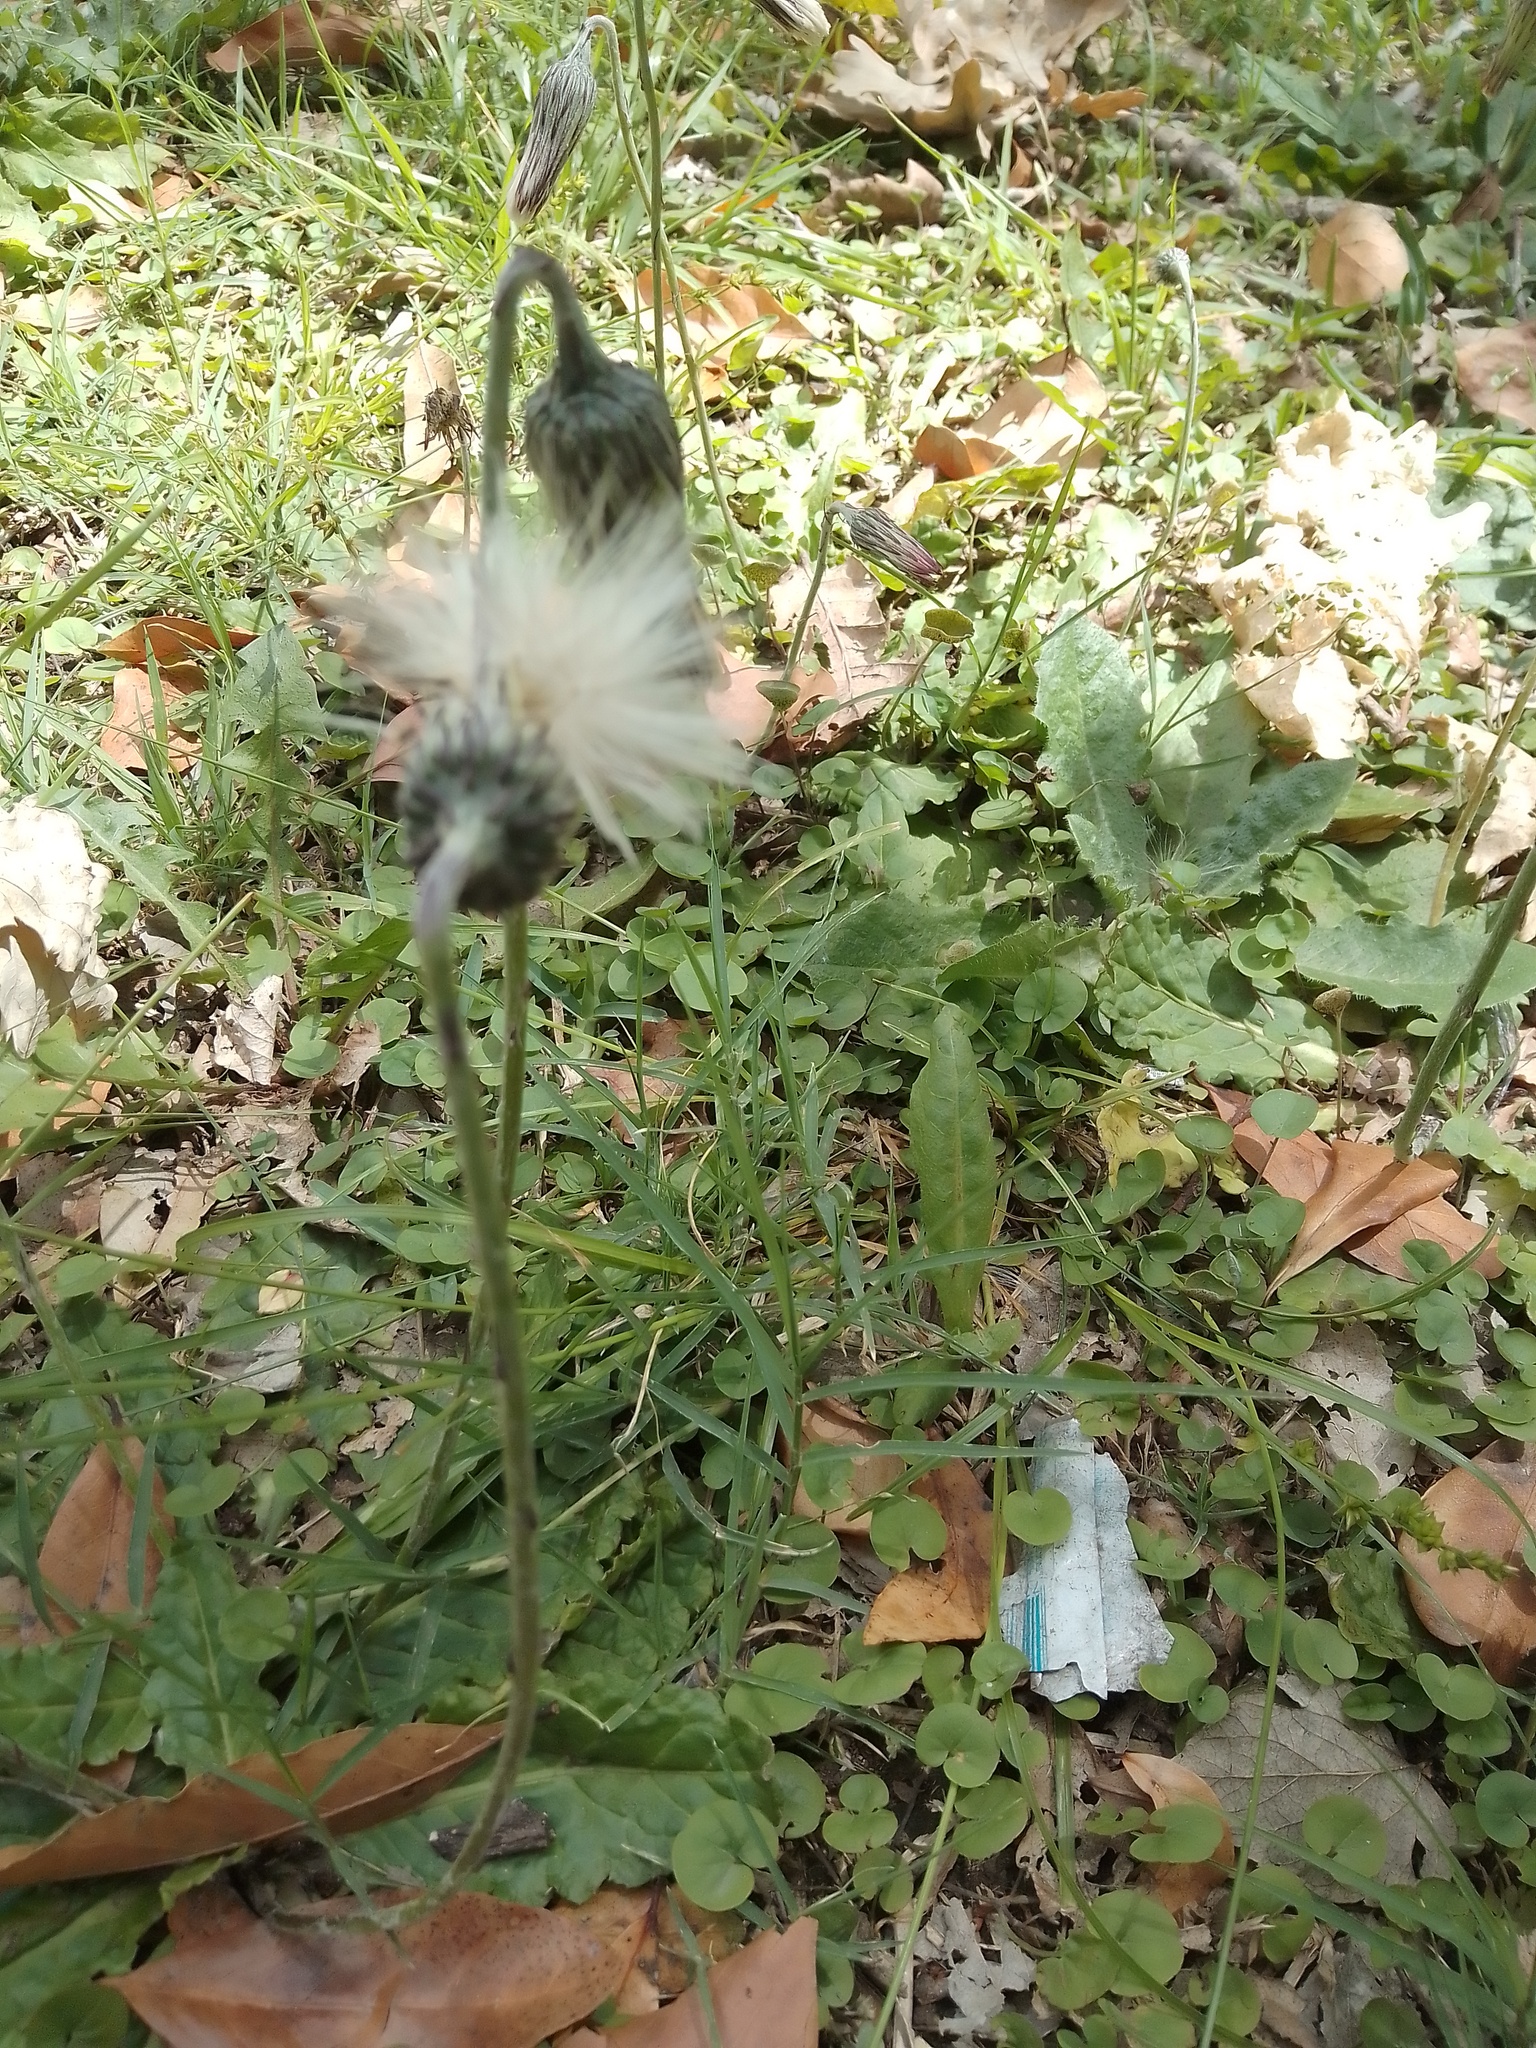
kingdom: Plantae
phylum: Tracheophyta
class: Magnoliopsida
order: Asterales
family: Asteraceae
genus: Chaptalia
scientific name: Chaptalia nutans
